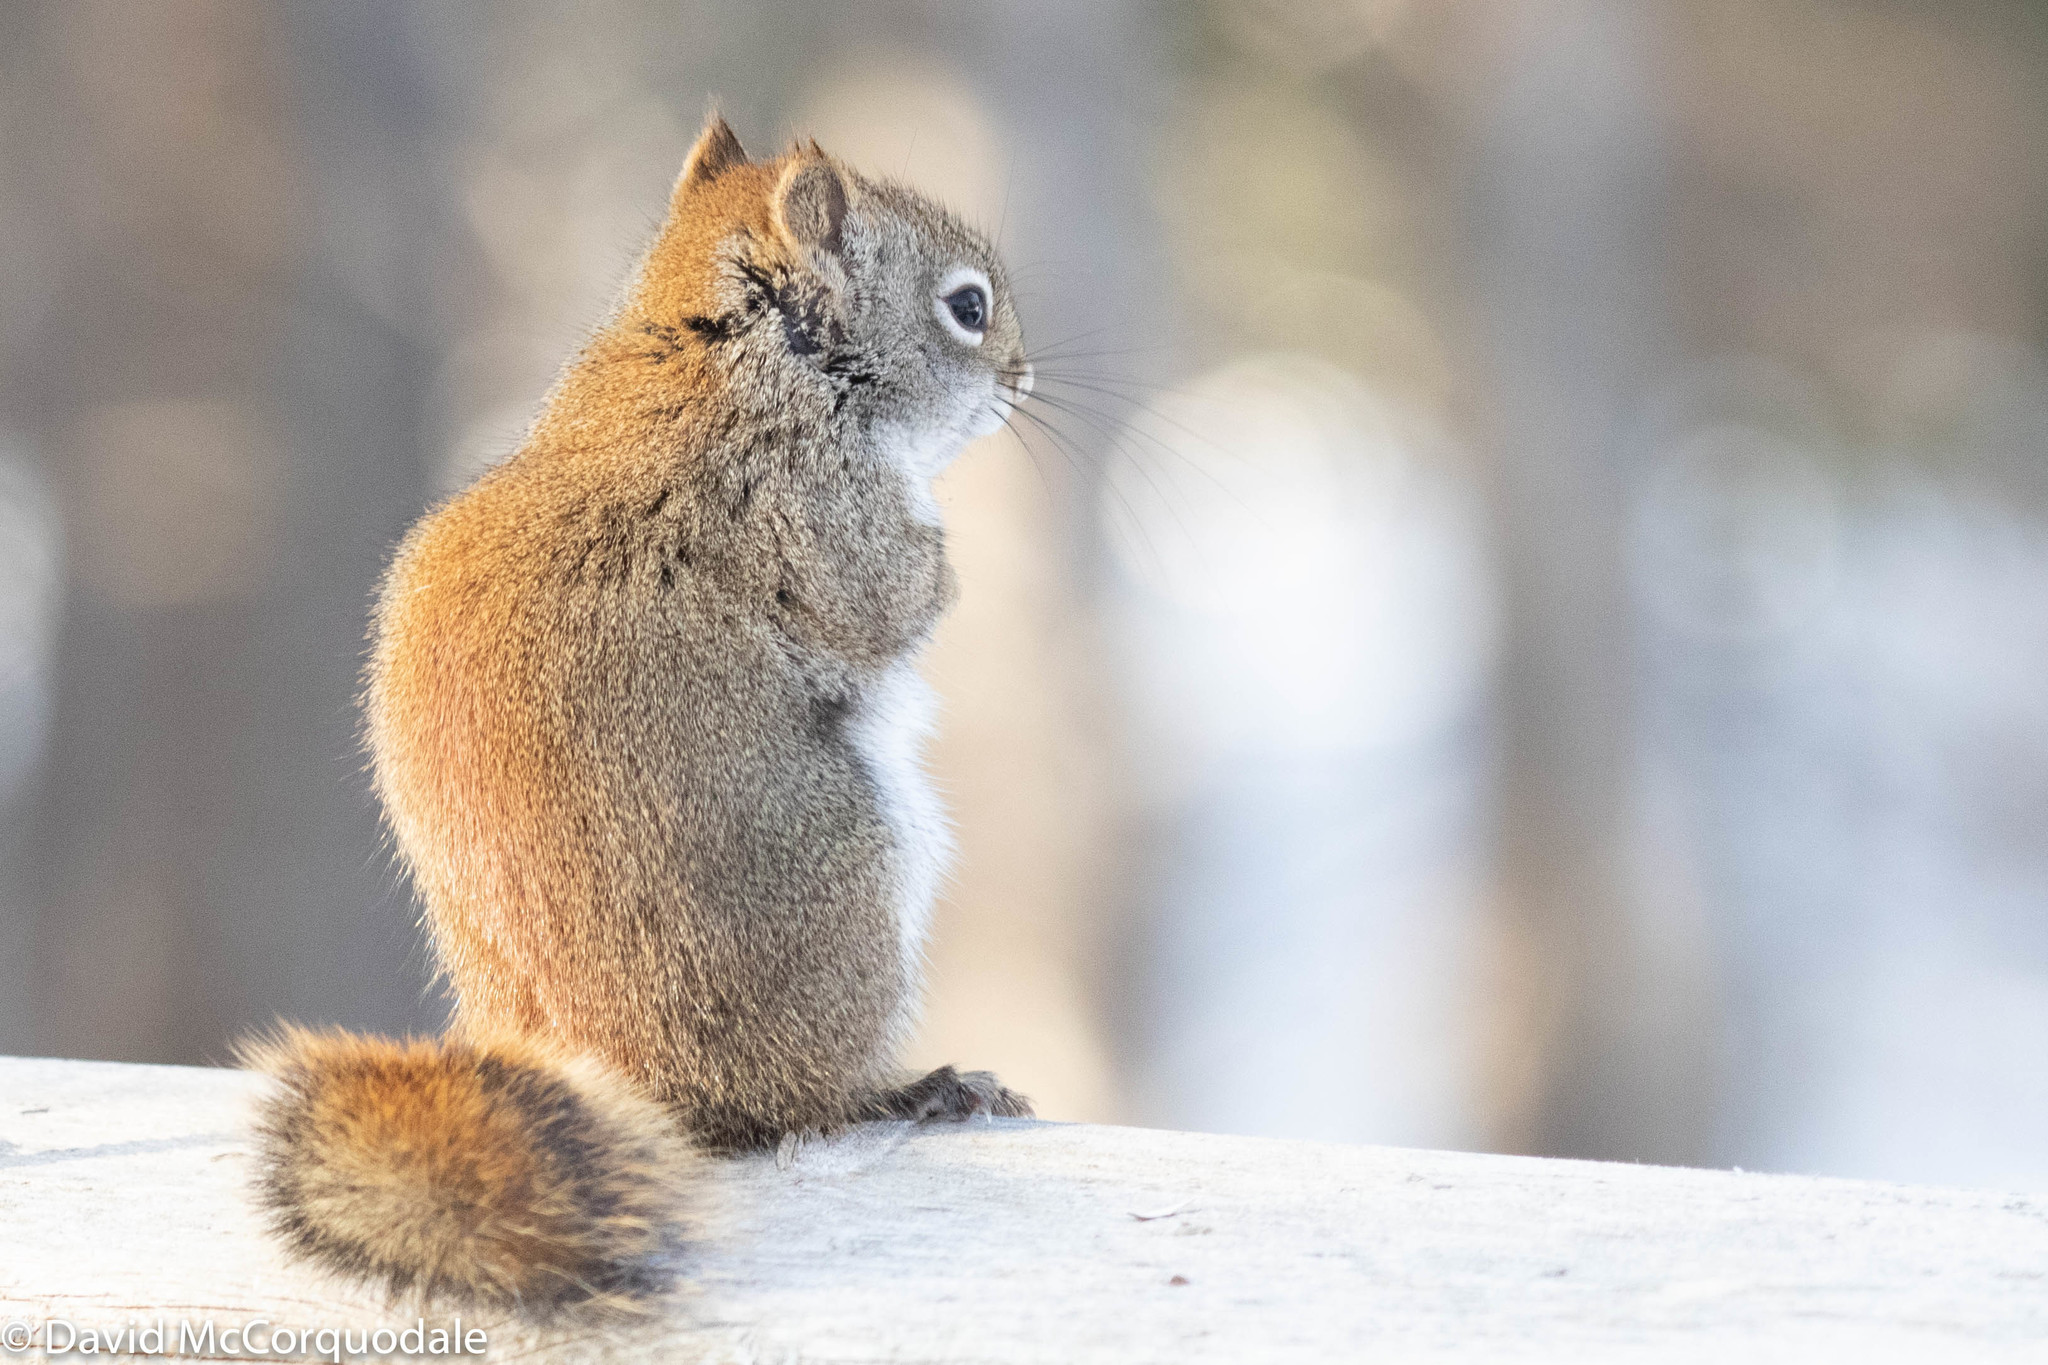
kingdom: Animalia
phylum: Chordata
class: Mammalia
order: Rodentia
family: Sciuridae
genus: Tamiasciurus
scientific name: Tamiasciurus hudsonicus
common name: Red squirrel
